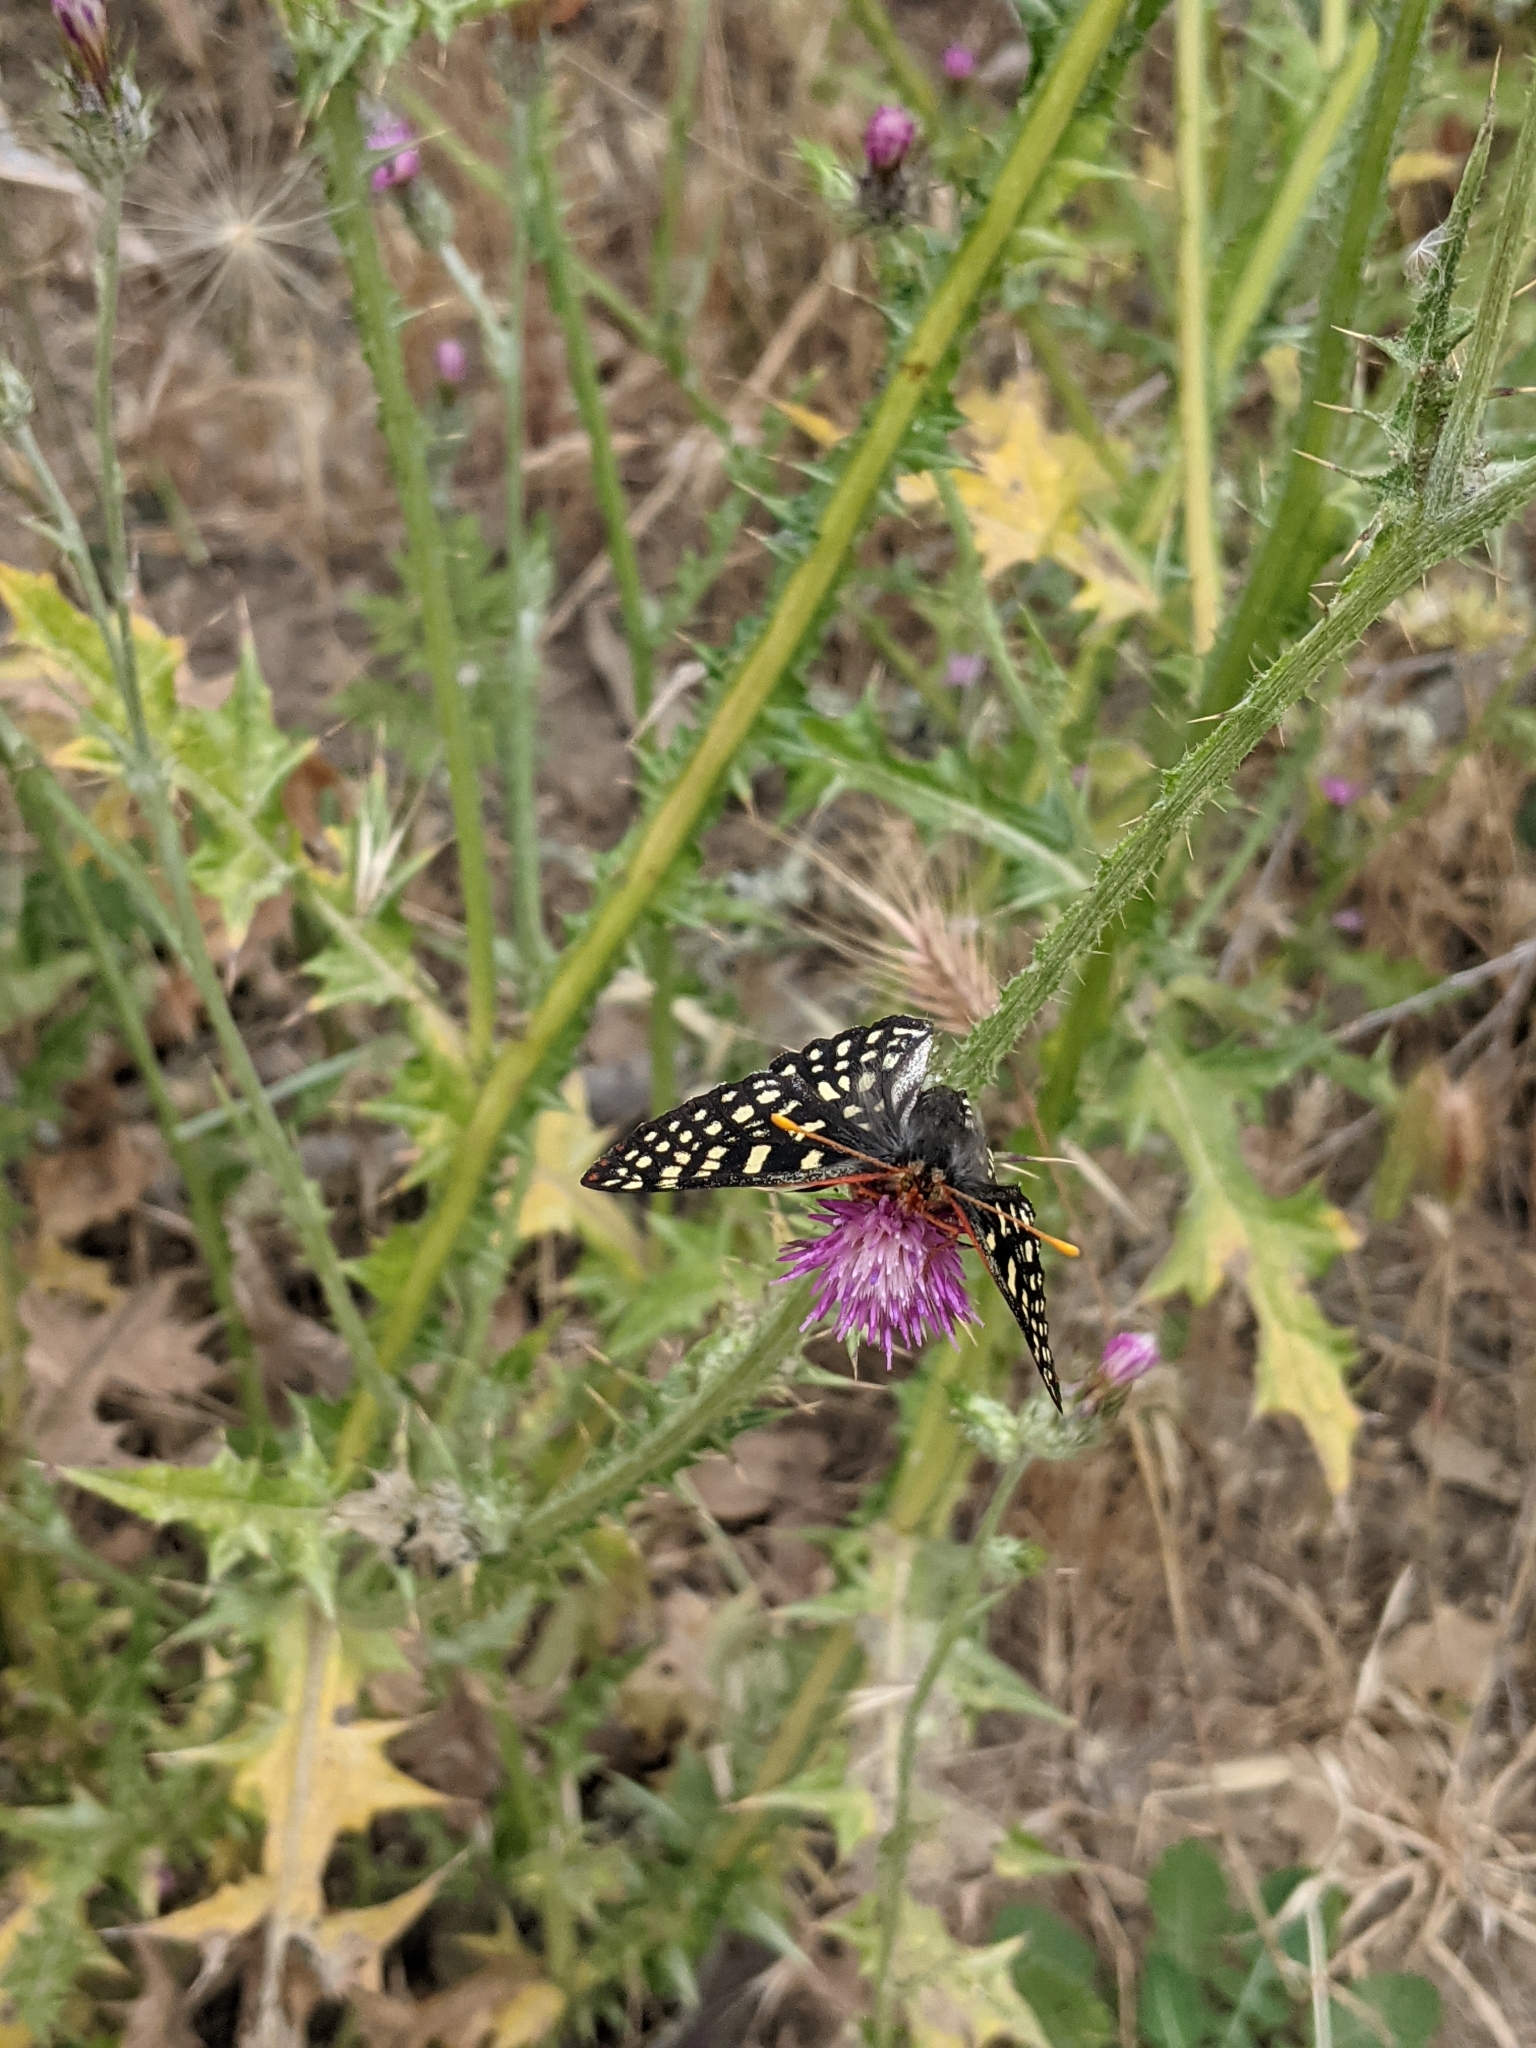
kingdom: Animalia
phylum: Arthropoda
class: Insecta
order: Lepidoptera
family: Nymphalidae
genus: Occidryas
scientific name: Occidryas chalcedona
